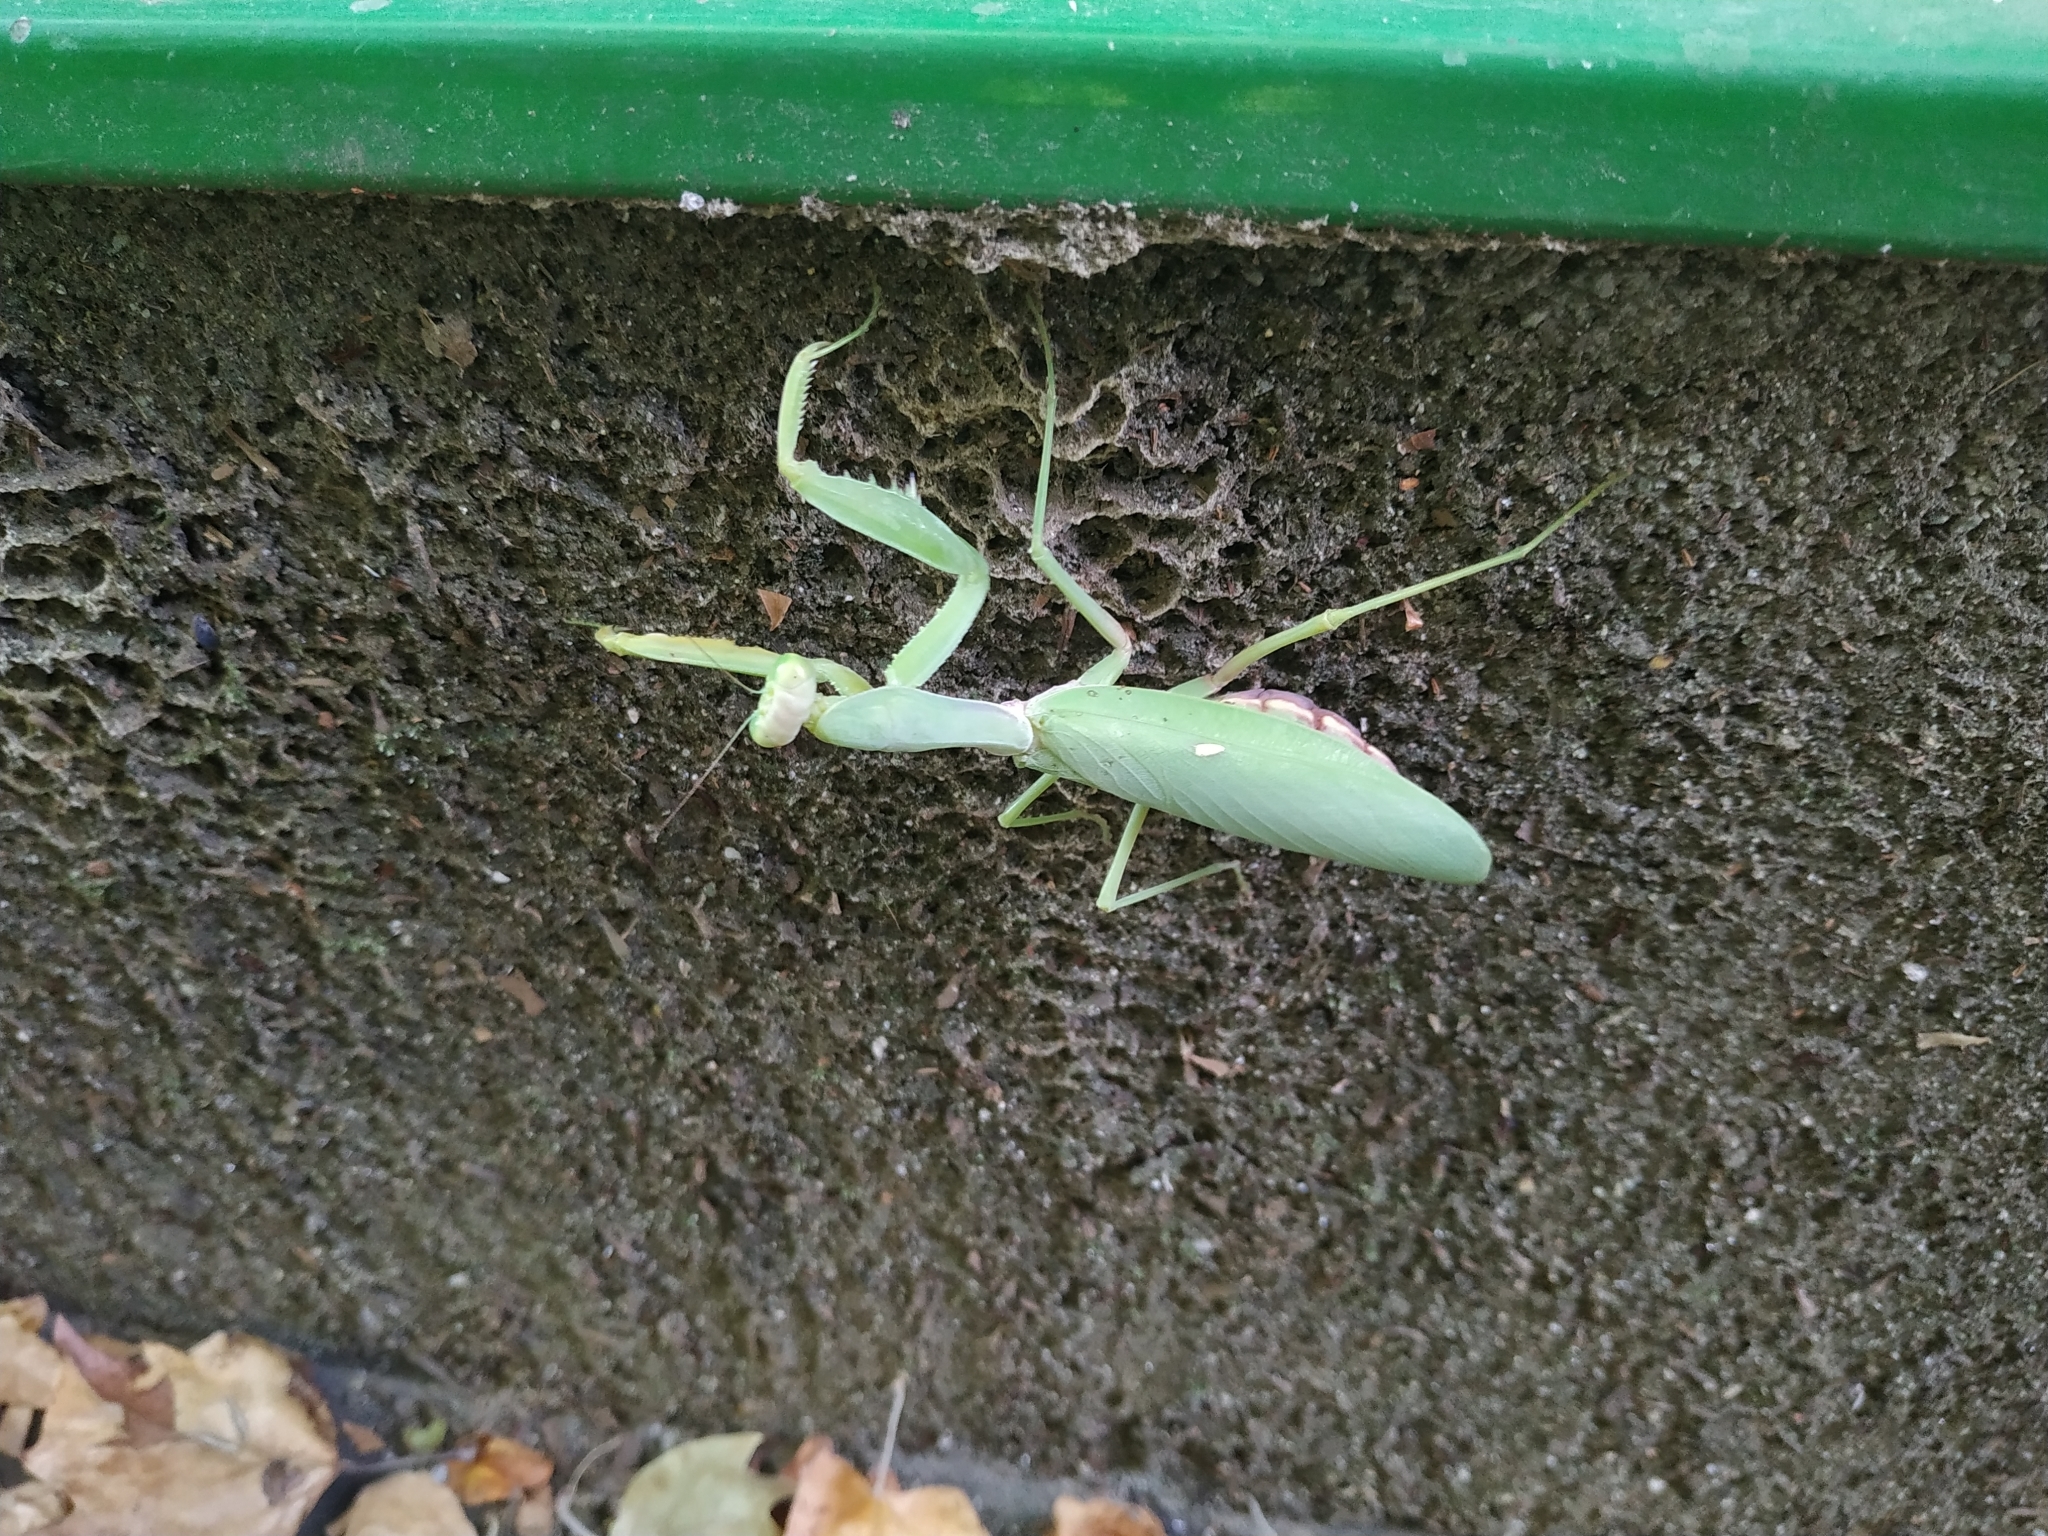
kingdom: Animalia
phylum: Arthropoda
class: Insecta
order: Mantodea
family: Mantidae
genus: Hierodula
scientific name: Hierodula transcaucasica
